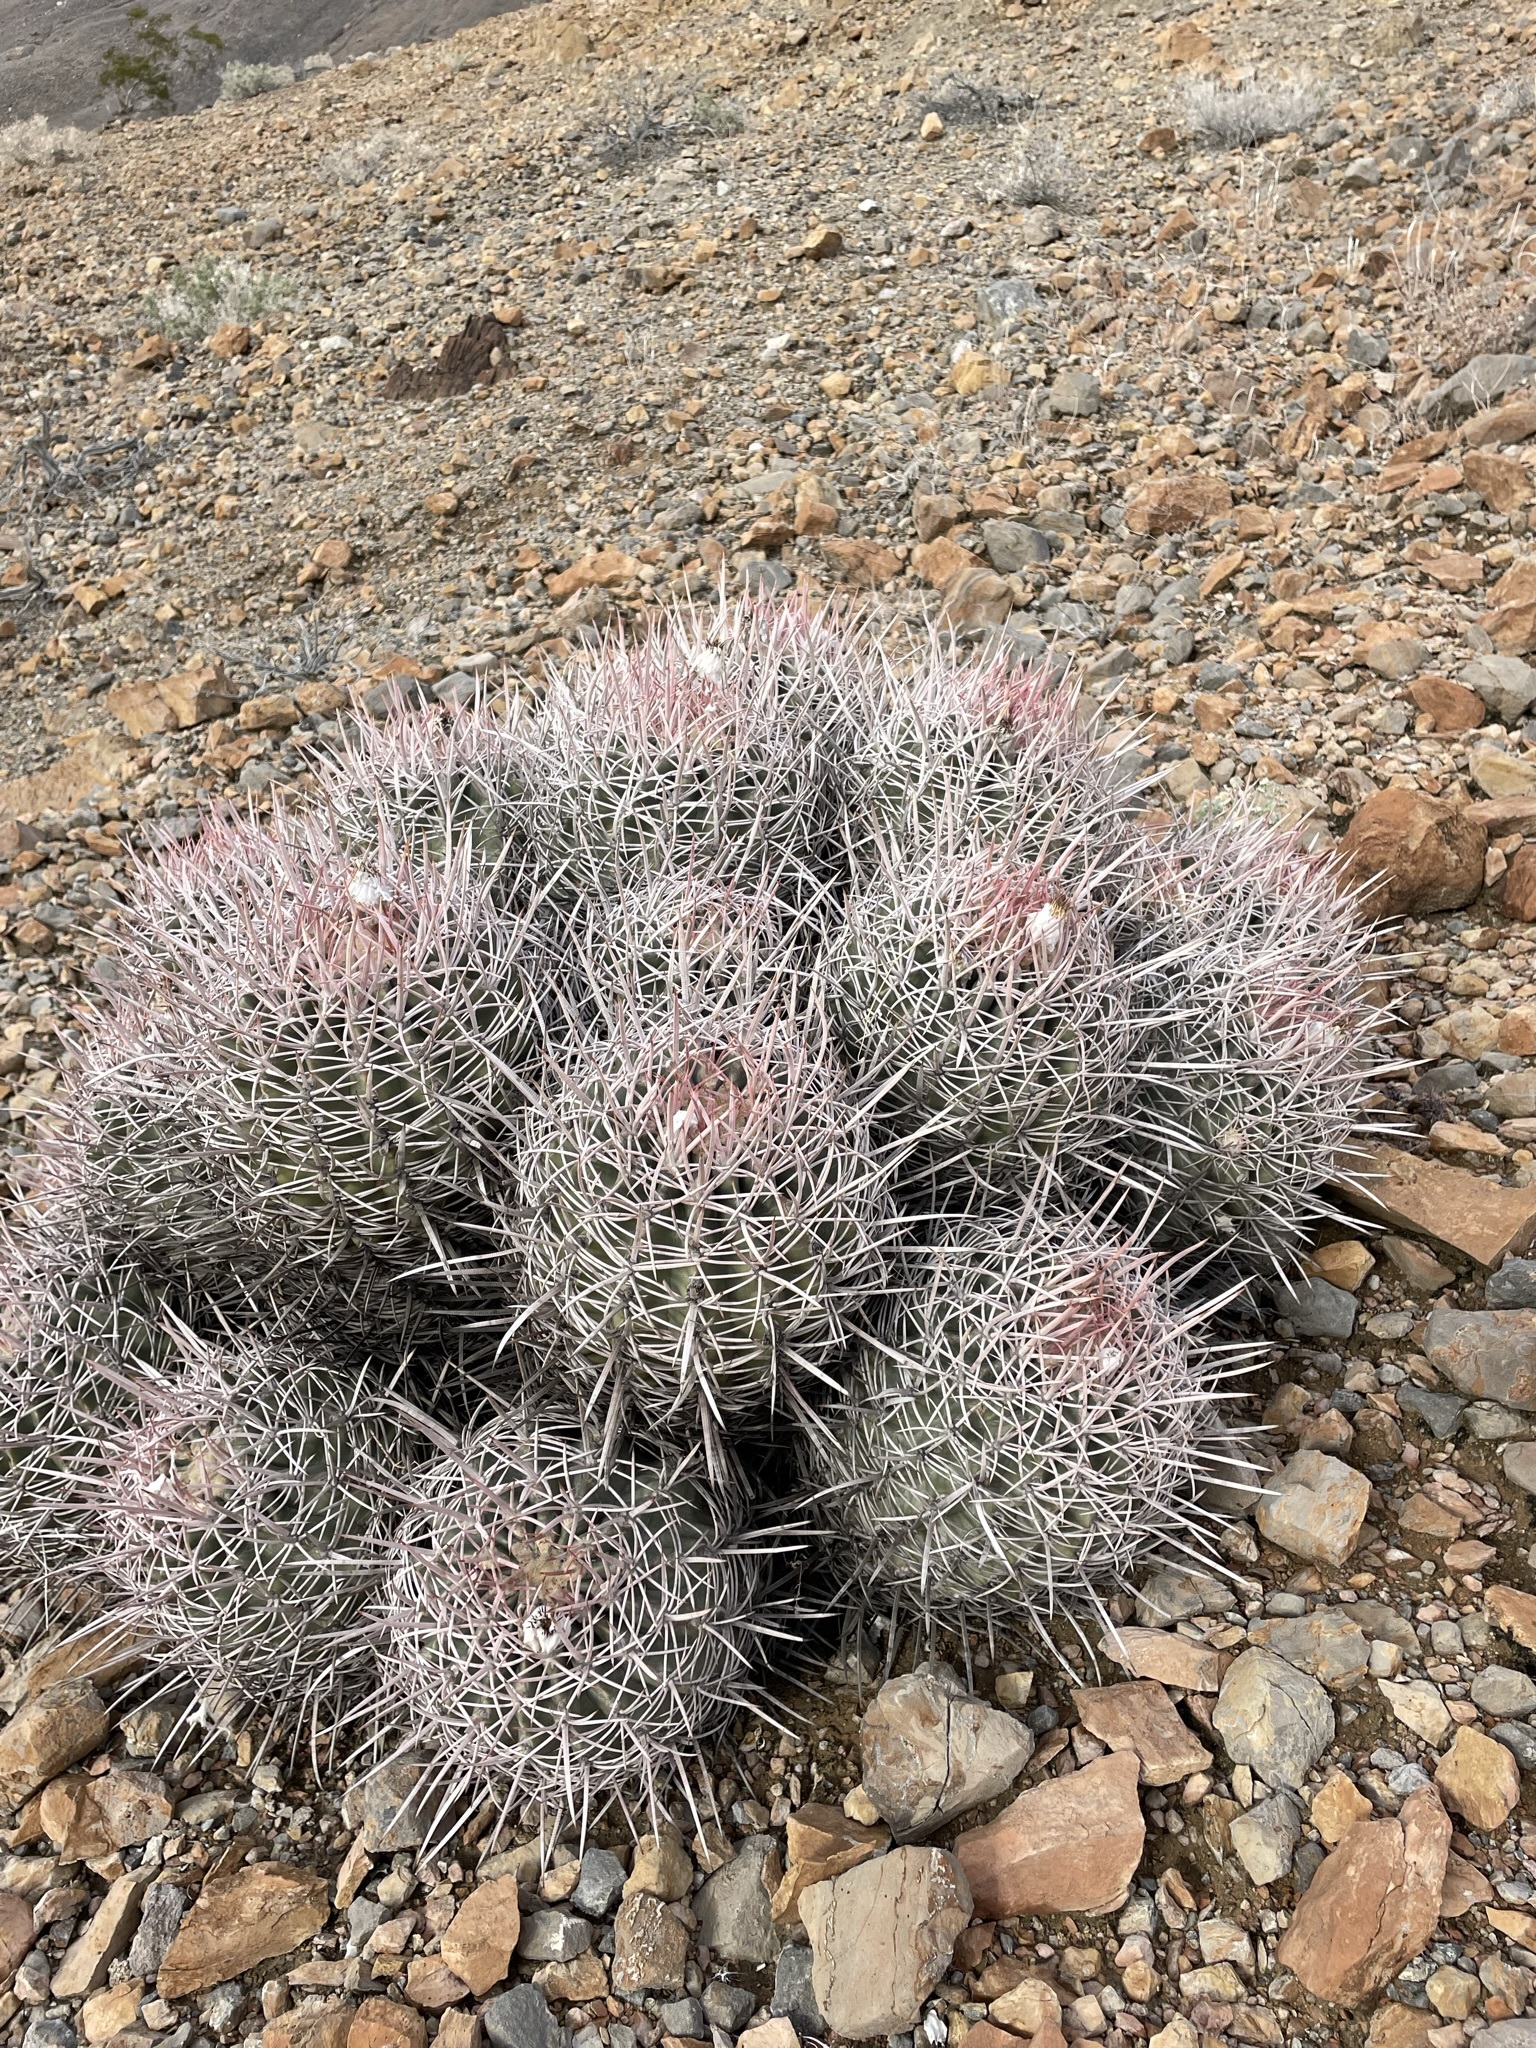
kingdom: Plantae
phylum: Tracheophyta
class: Magnoliopsida
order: Caryophyllales
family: Cactaceae
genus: Echinocactus
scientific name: Echinocactus polycephalus
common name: Cottontop cactus
